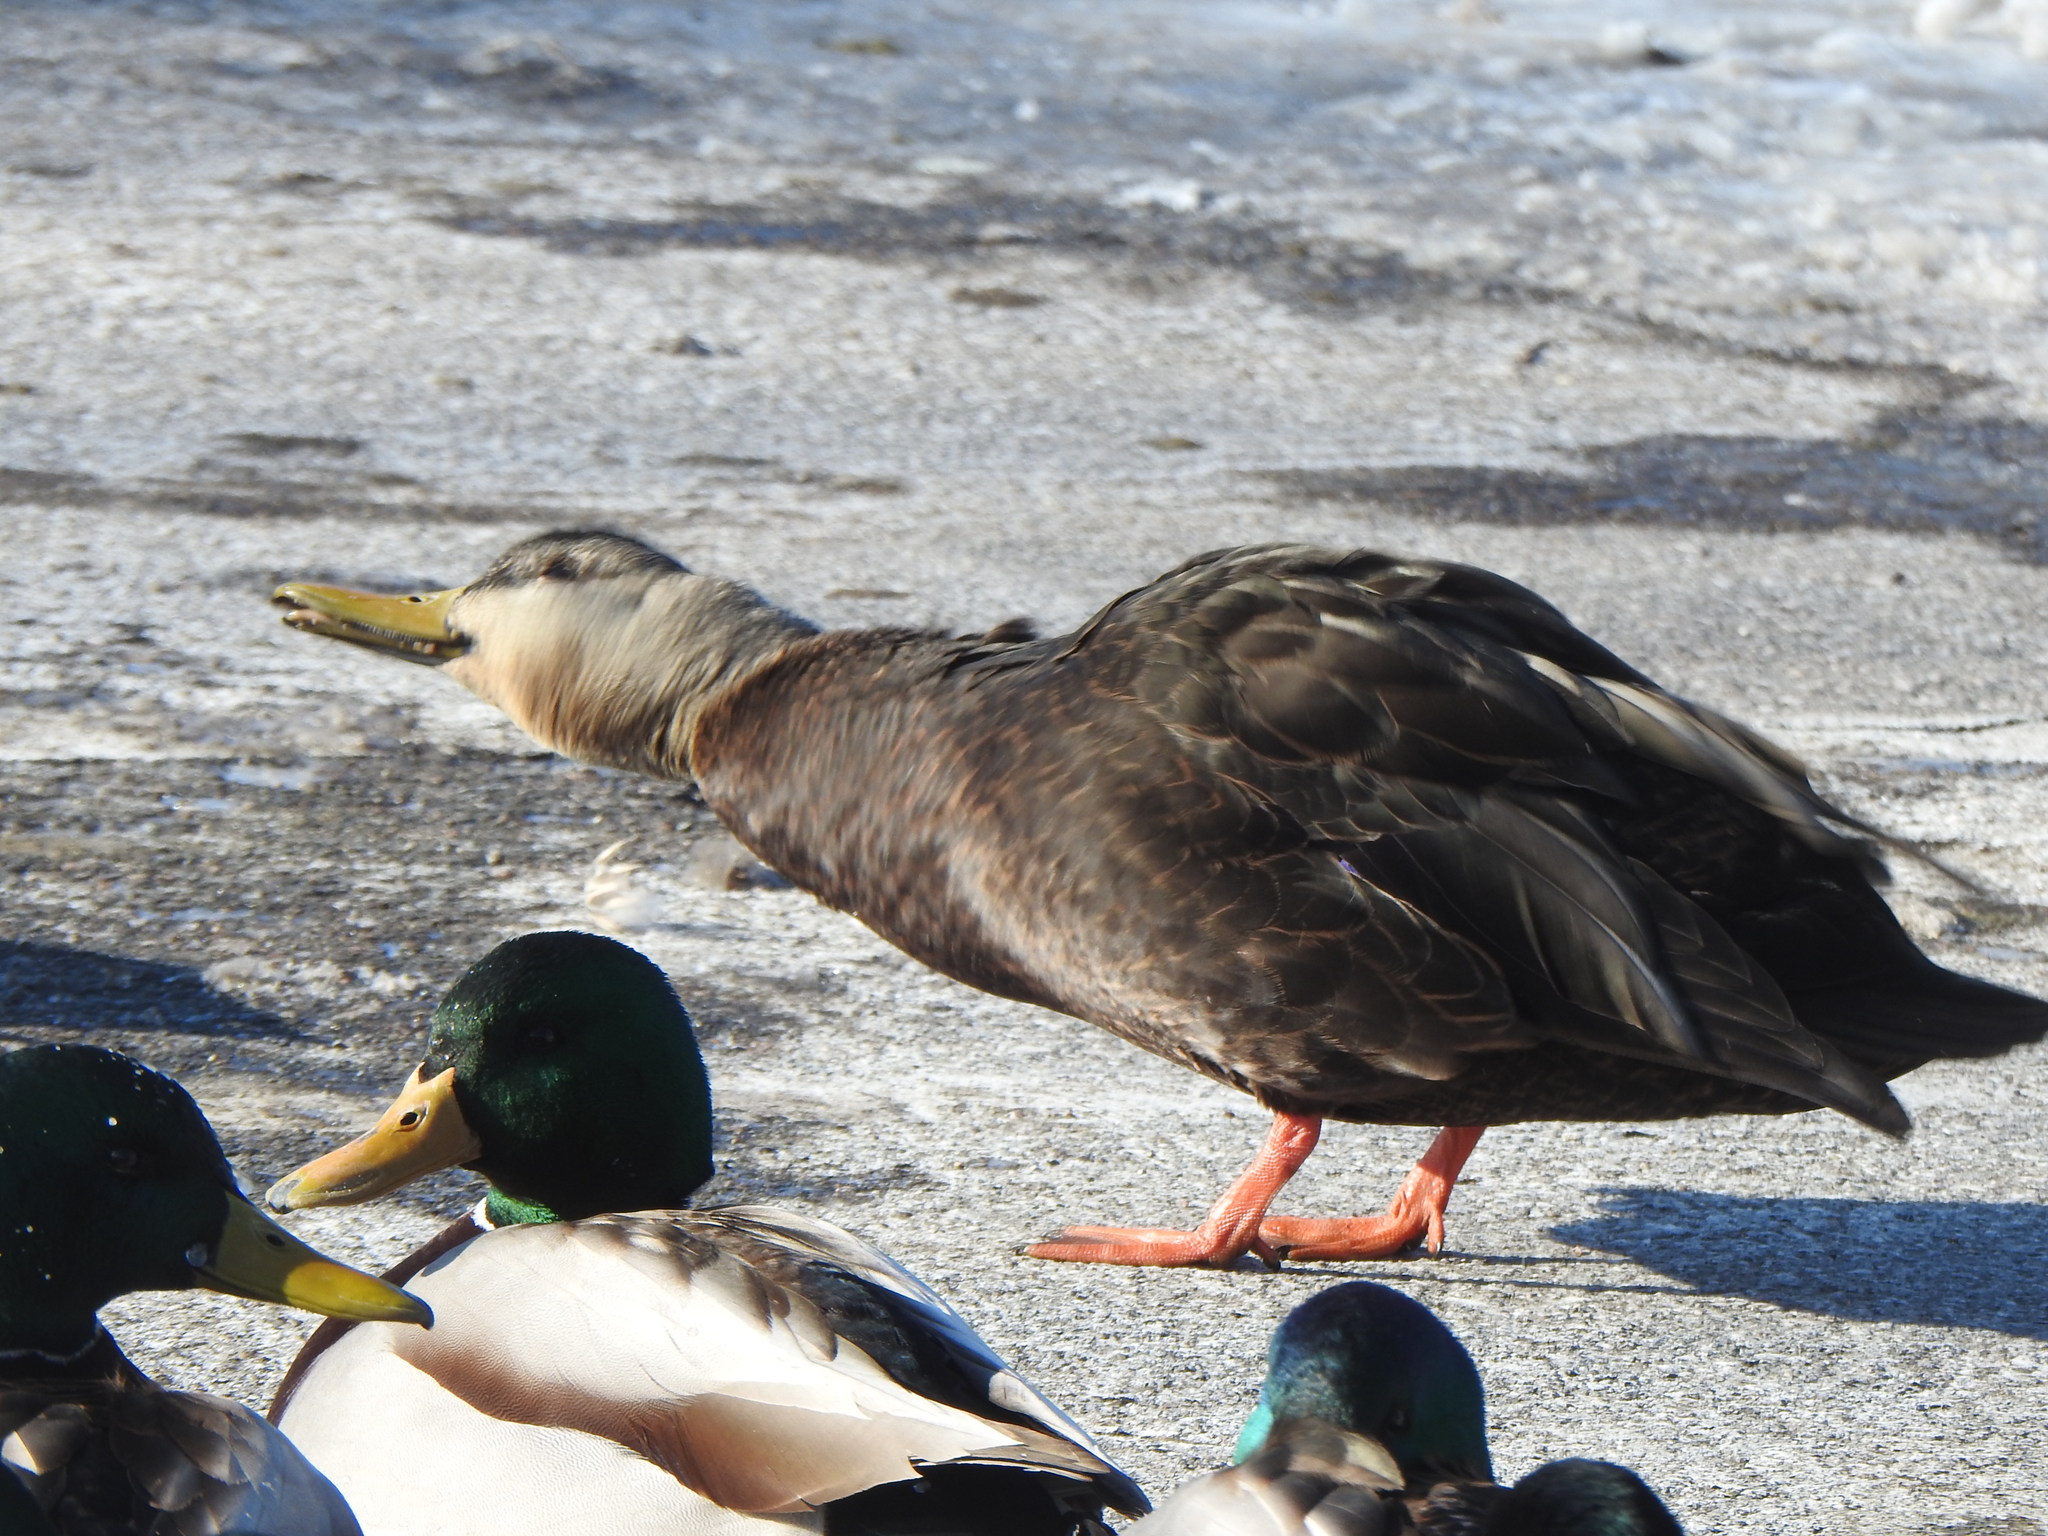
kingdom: Animalia
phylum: Chordata
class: Aves
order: Anseriformes
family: Anatidae
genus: Anas
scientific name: Anas rubripes
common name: American black duck
